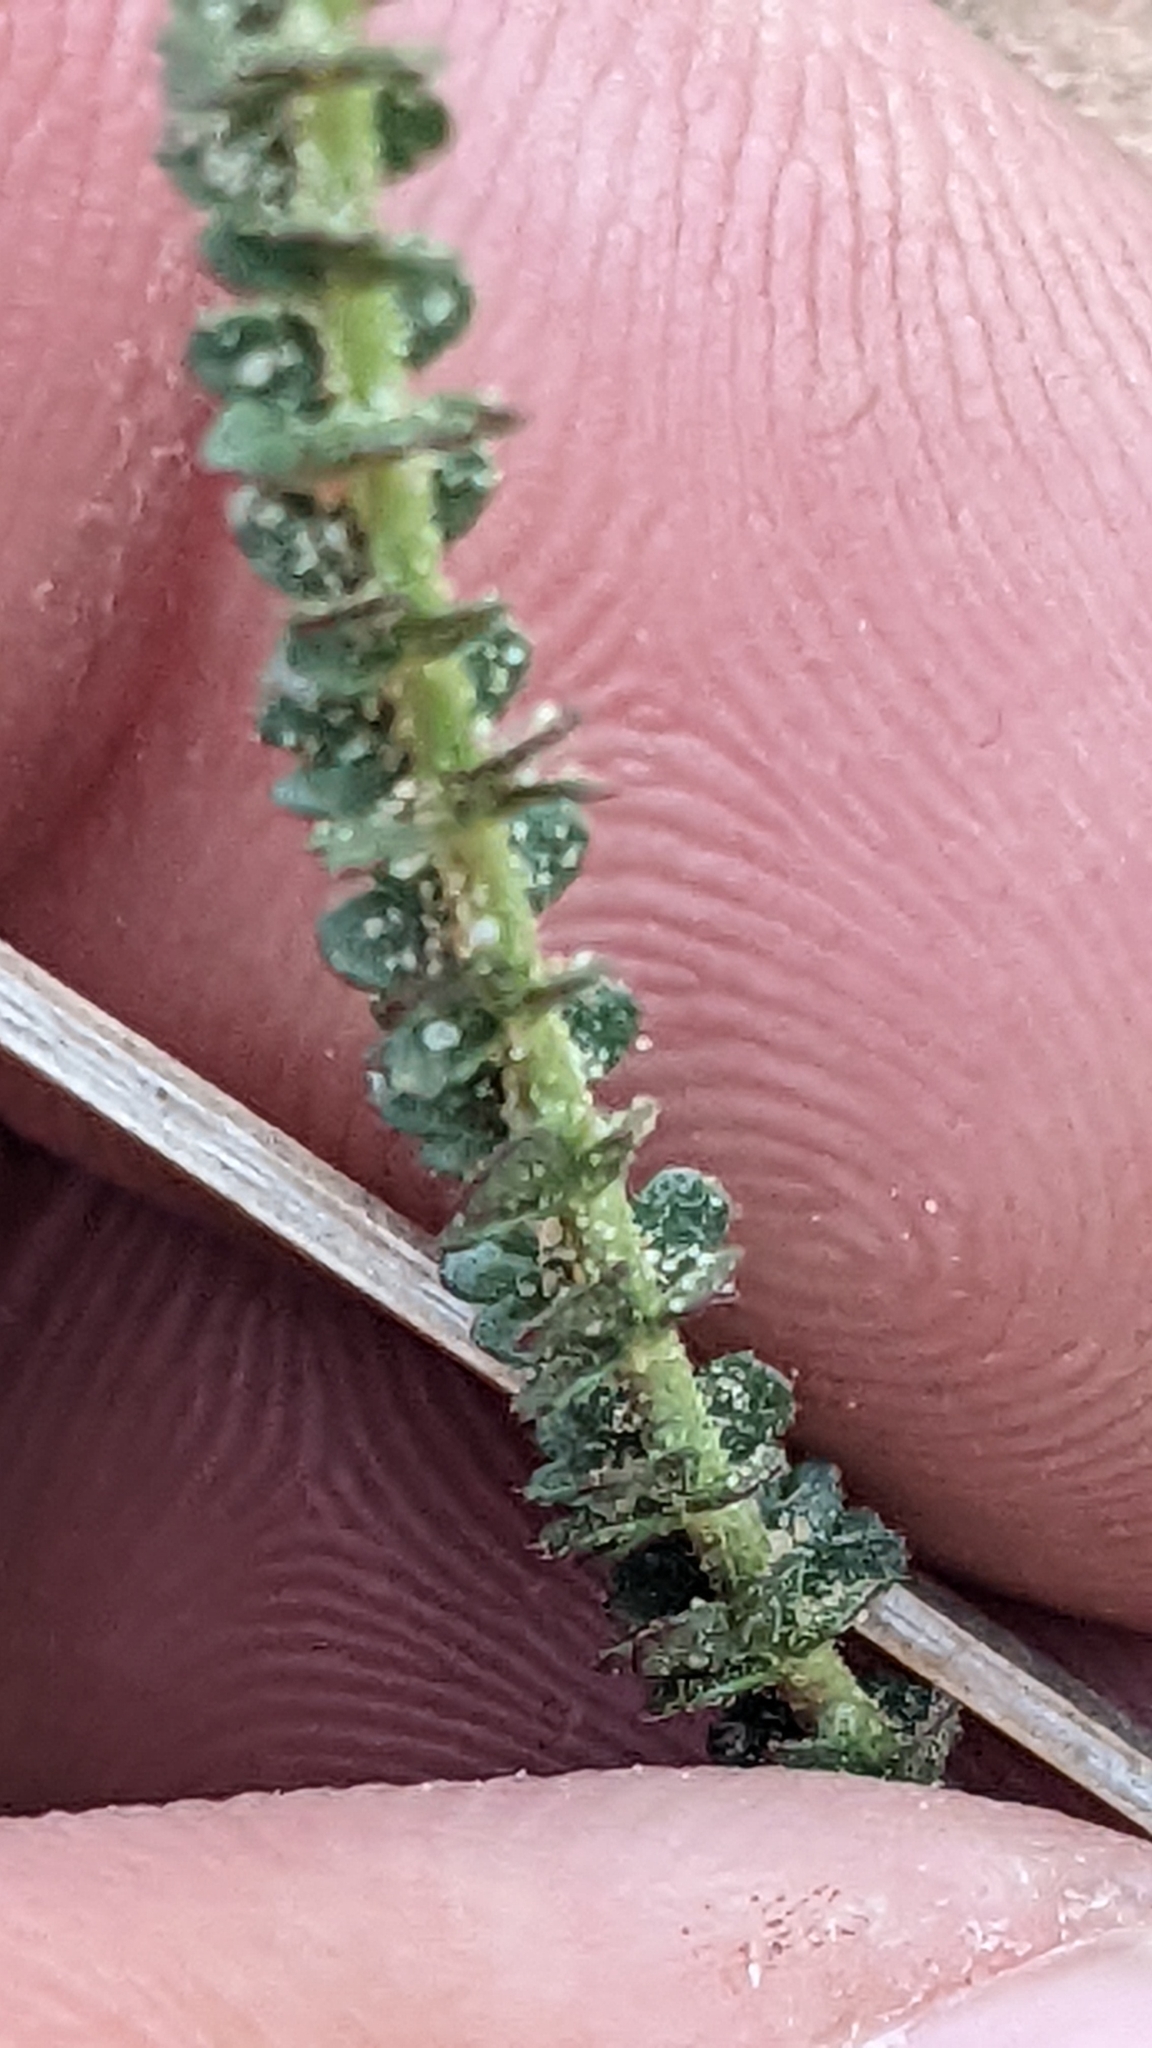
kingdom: Plantae
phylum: Tracheophyta
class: Magnoliopsida
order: Rosales
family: Rosaceae
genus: Potentilla
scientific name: Potentilla sabulosa
